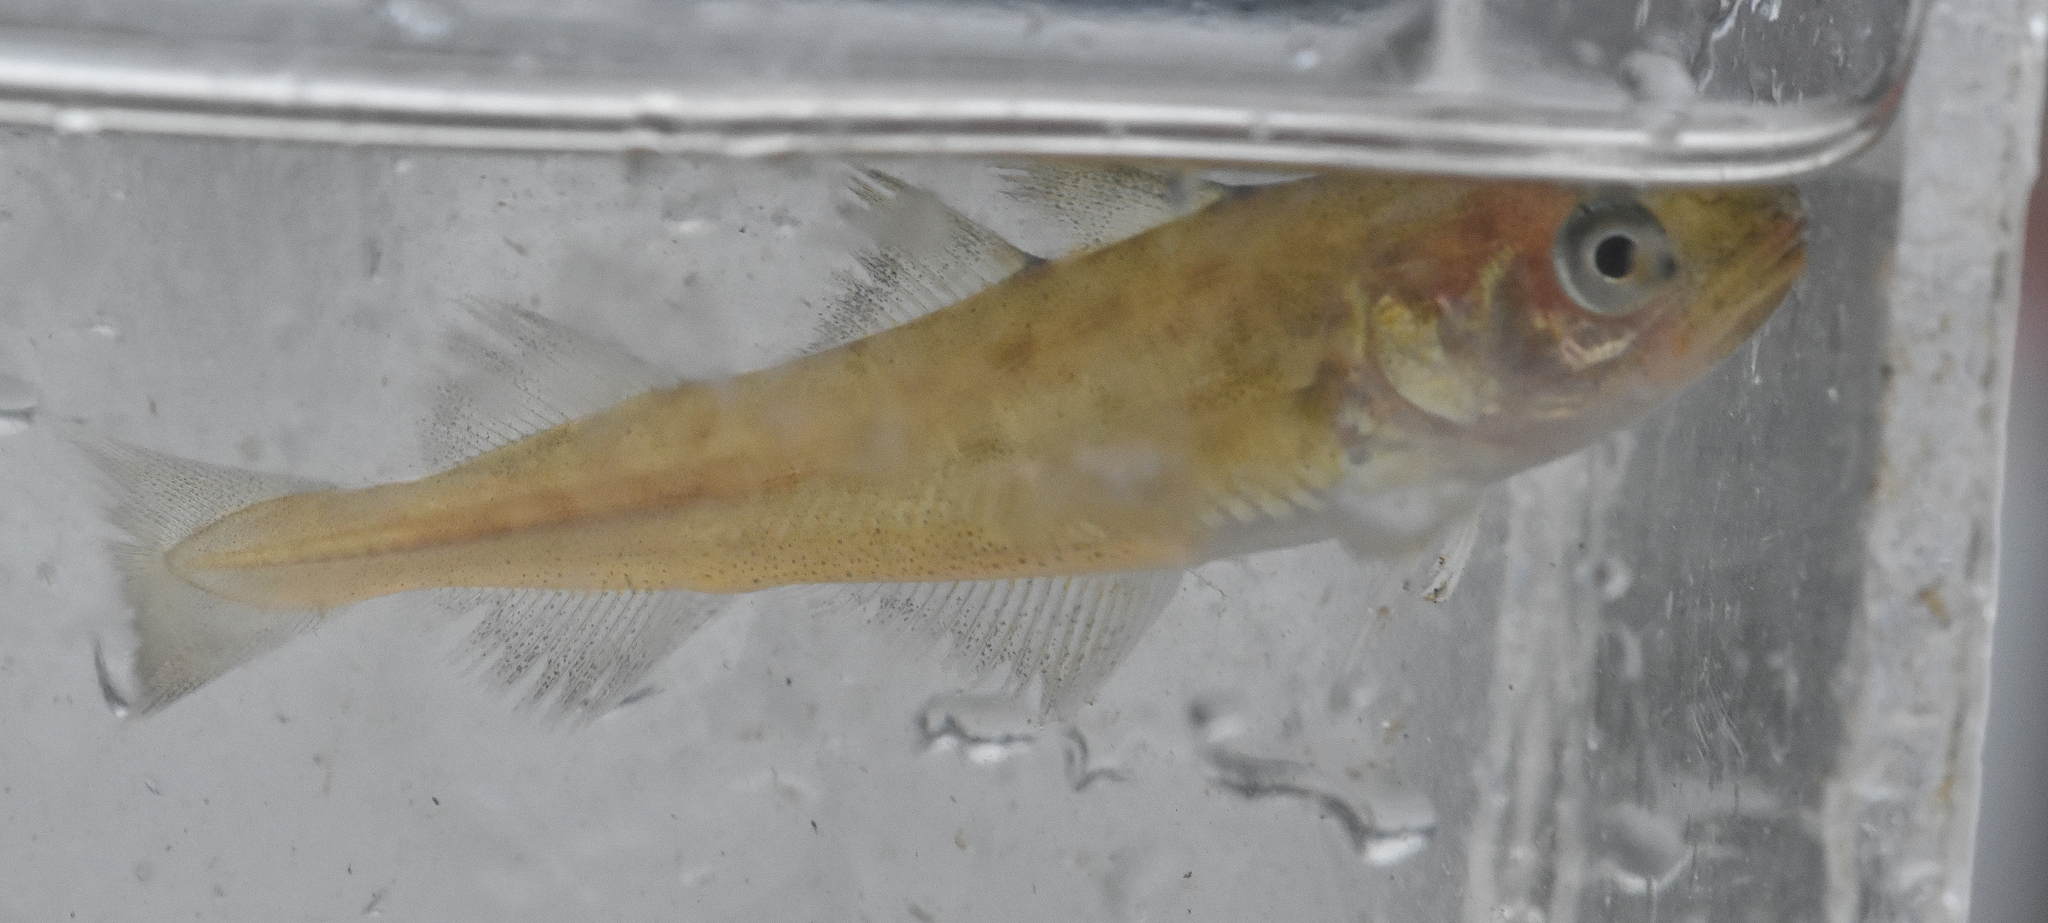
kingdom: Animalia
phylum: Chordata
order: Gadiformes
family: Gadidae
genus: Microgadus
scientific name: Microgadus proximus
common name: Pacific tomcod
